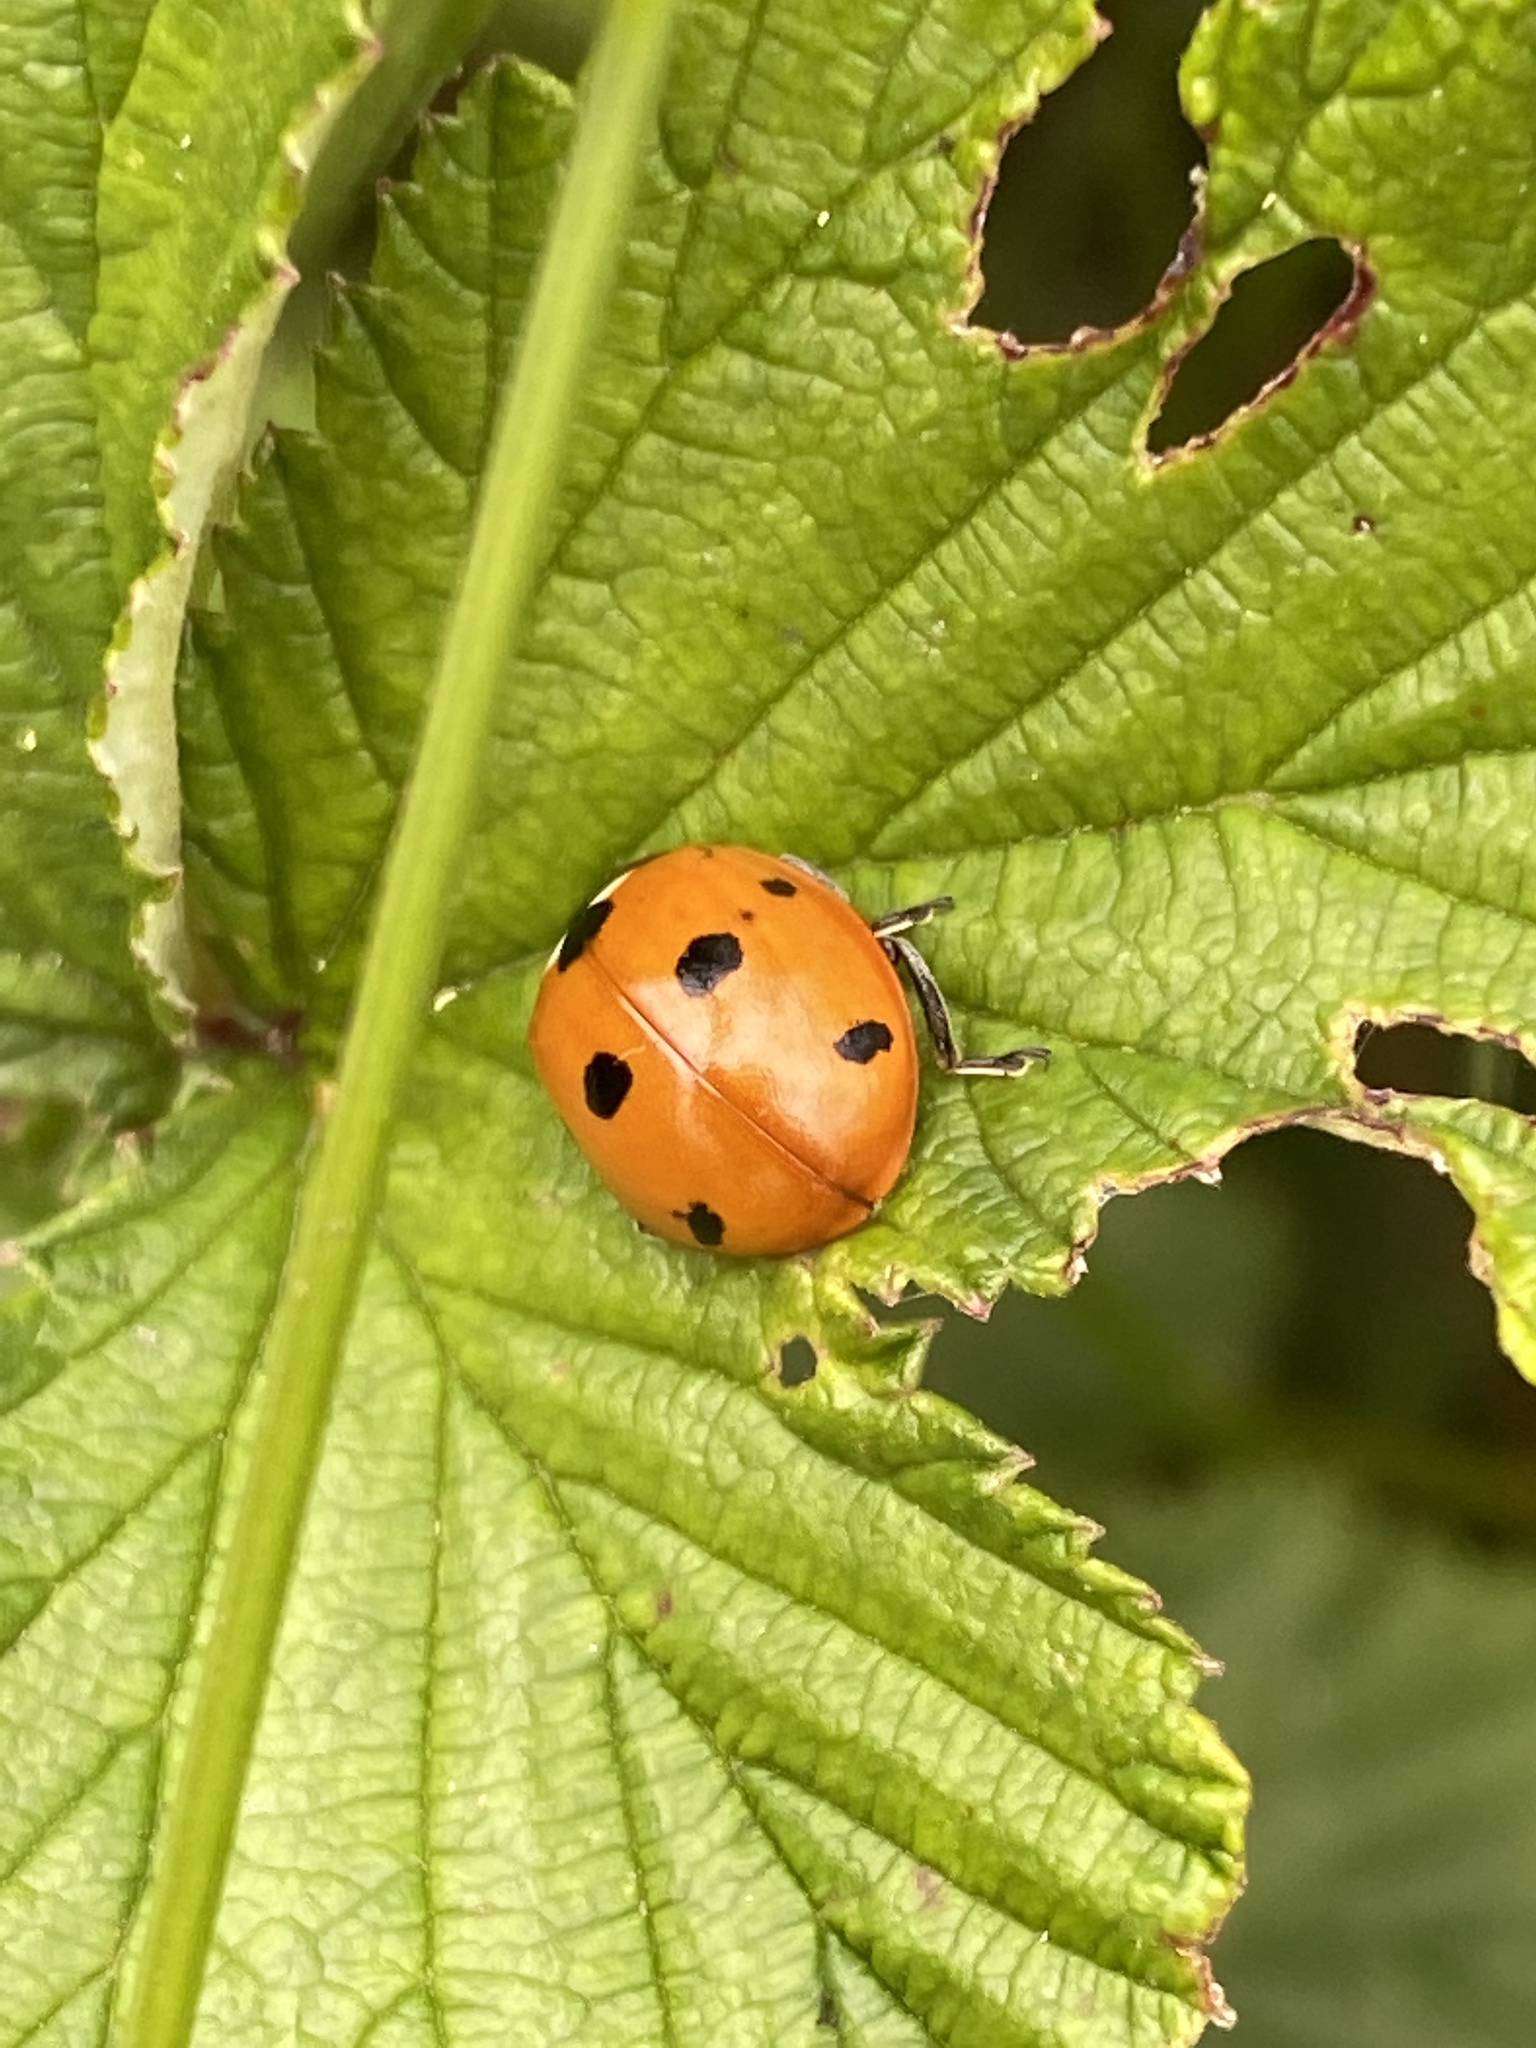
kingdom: Animalia
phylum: Arthropoda
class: Insecta
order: Coleoptera
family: Coccinellidae
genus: Coccinella
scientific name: Coccinella septempunctata
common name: Sevenspotted lady beetle
